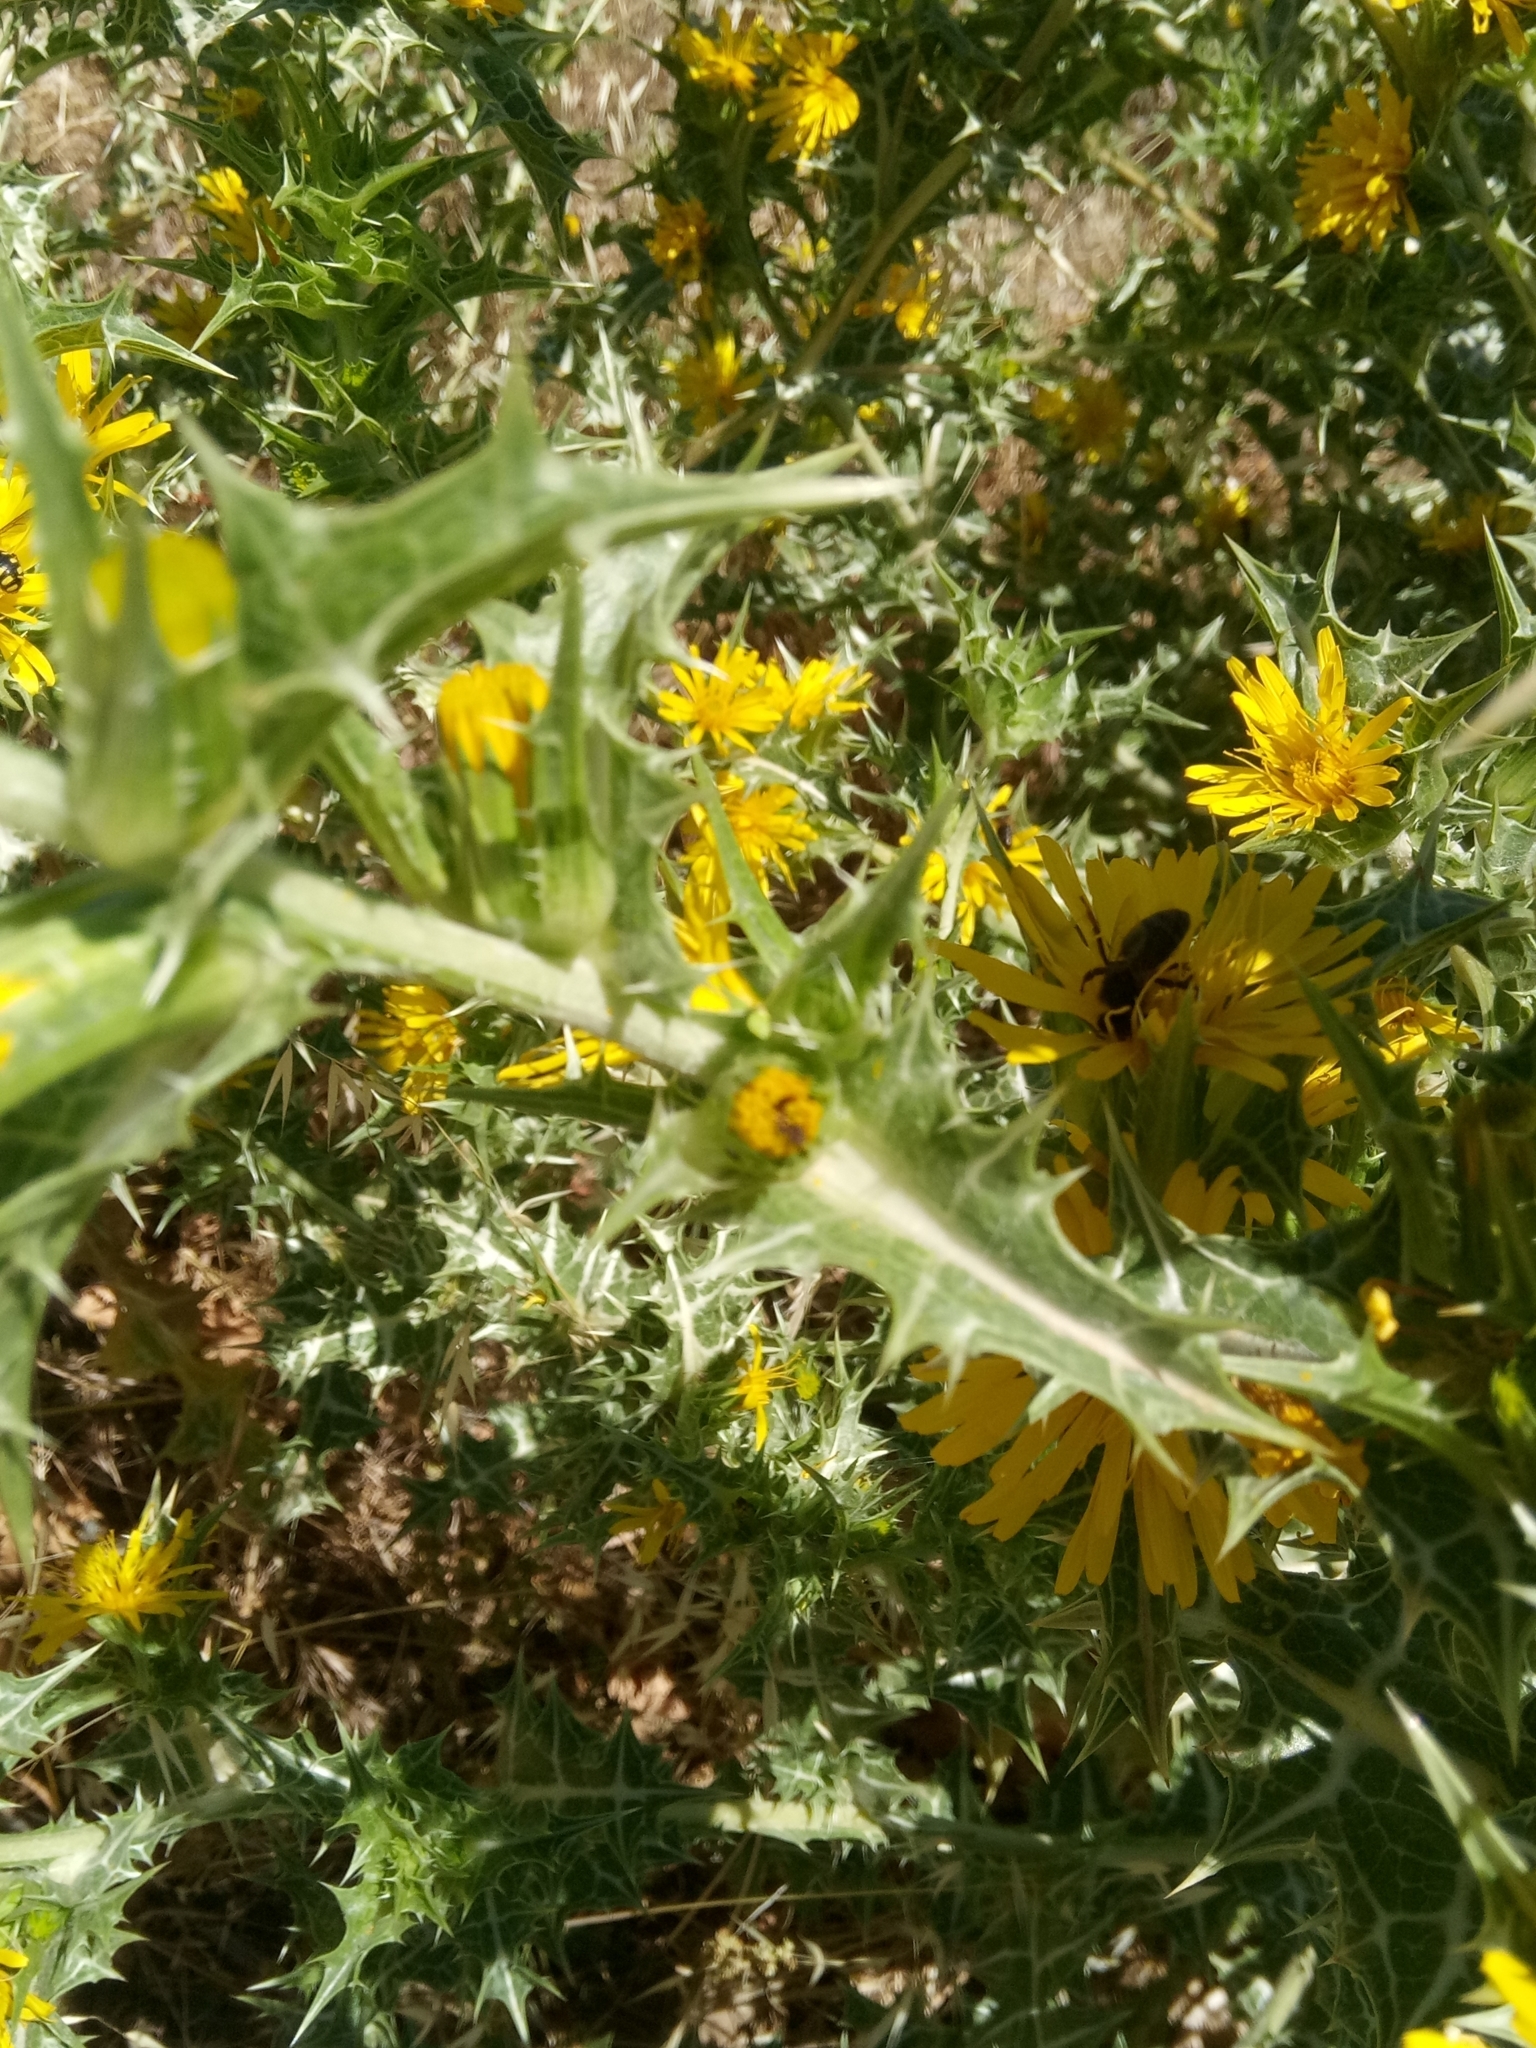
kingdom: Plantae
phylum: Tracheophyta
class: Magnoliopsida
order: Asterales
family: Asteraceae
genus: Scolymus
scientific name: Scolymus hispanicus
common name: Golden thistle
